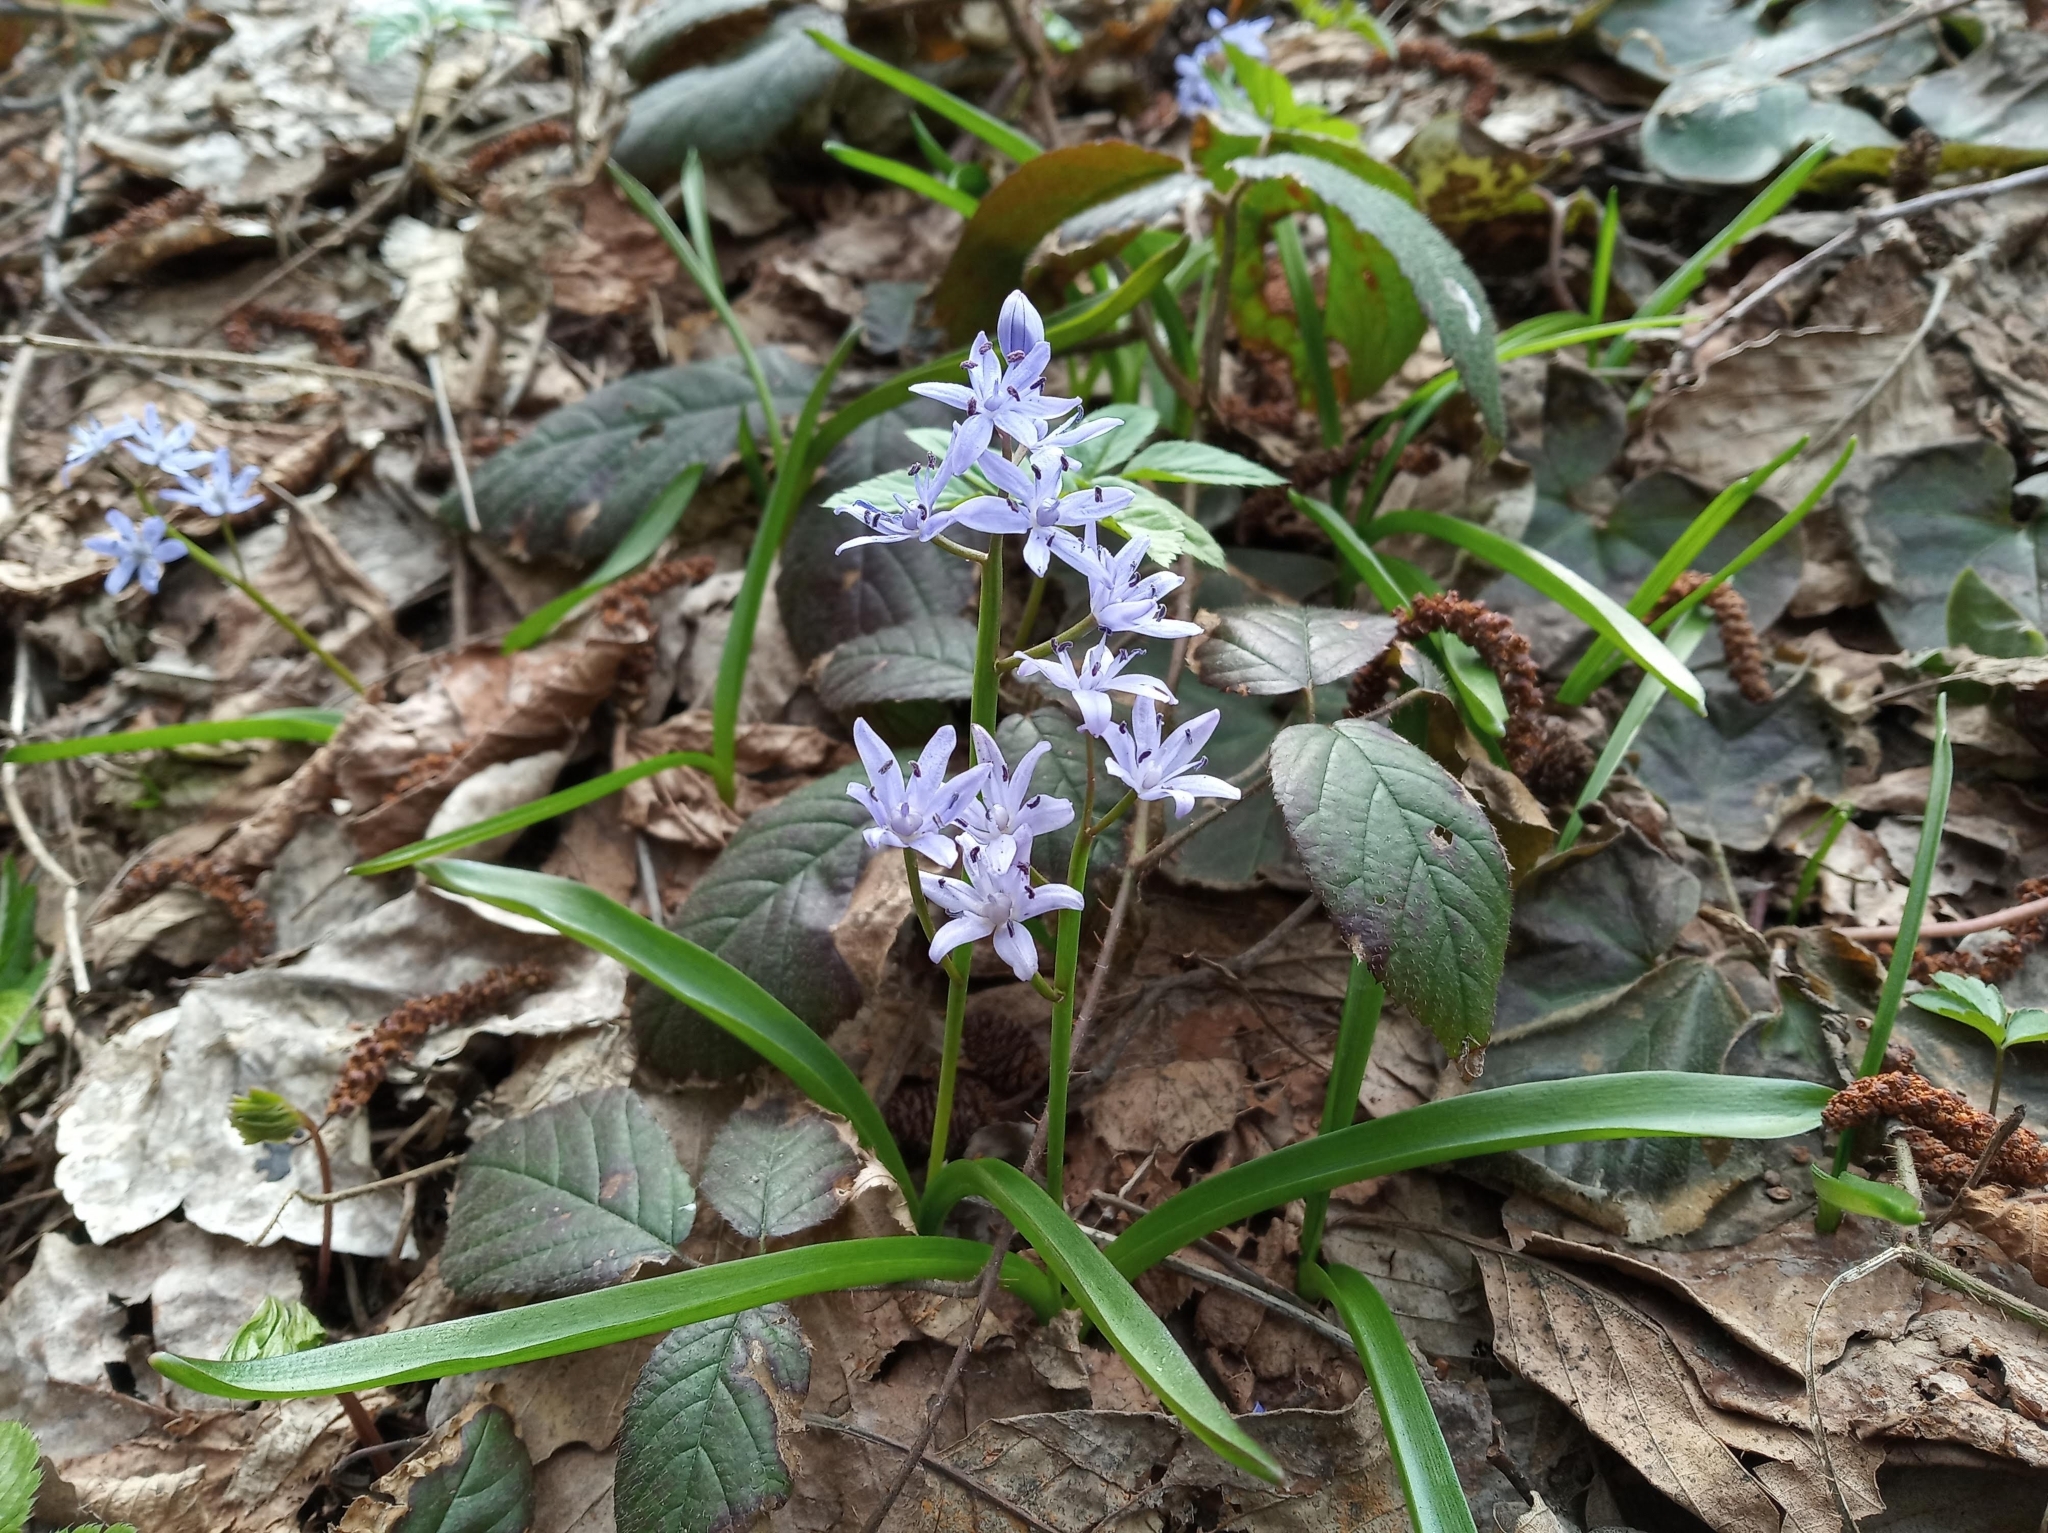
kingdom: Plantae
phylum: Tracheophyta
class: Liliopsida
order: Asparagales
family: Asparagaceae
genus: Scilla
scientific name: Scilla bifolia
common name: Alpine squill
